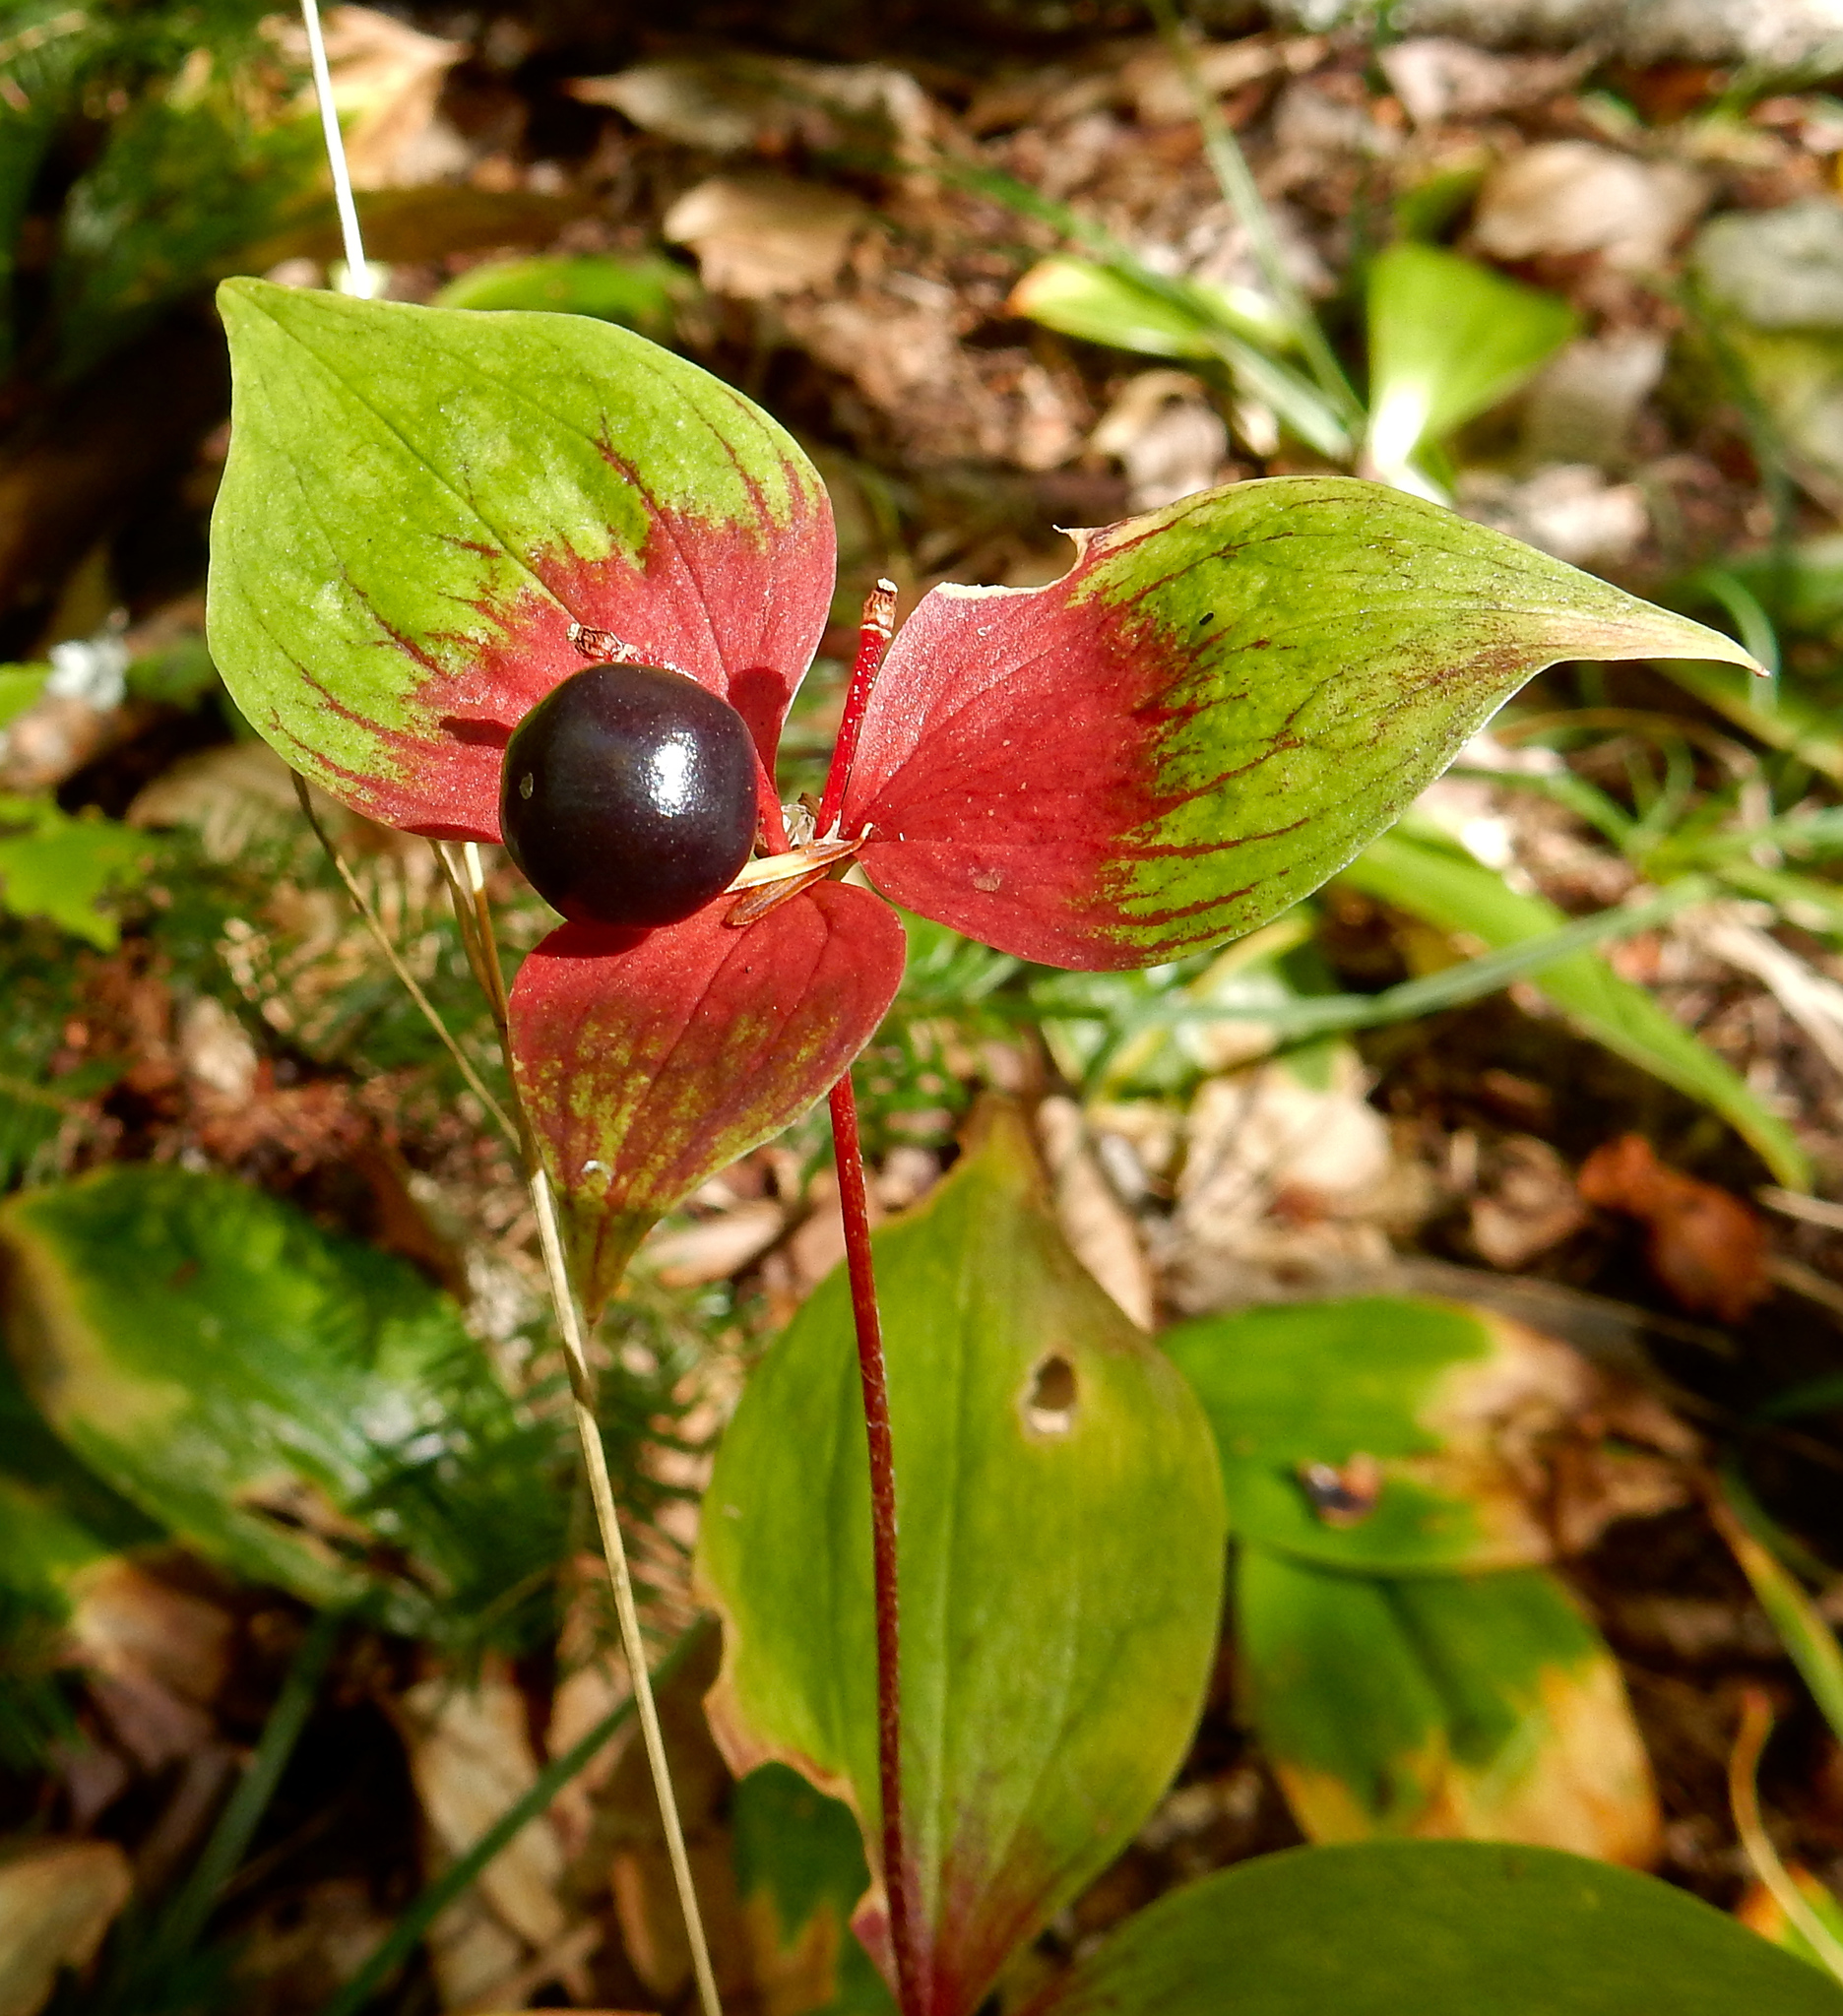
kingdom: Plantae
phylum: Tracheophyta
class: Liliopsida
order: Liliales
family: Liliaceae
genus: Medeola
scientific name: Medeola virginiana
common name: Indian cucumber-root
